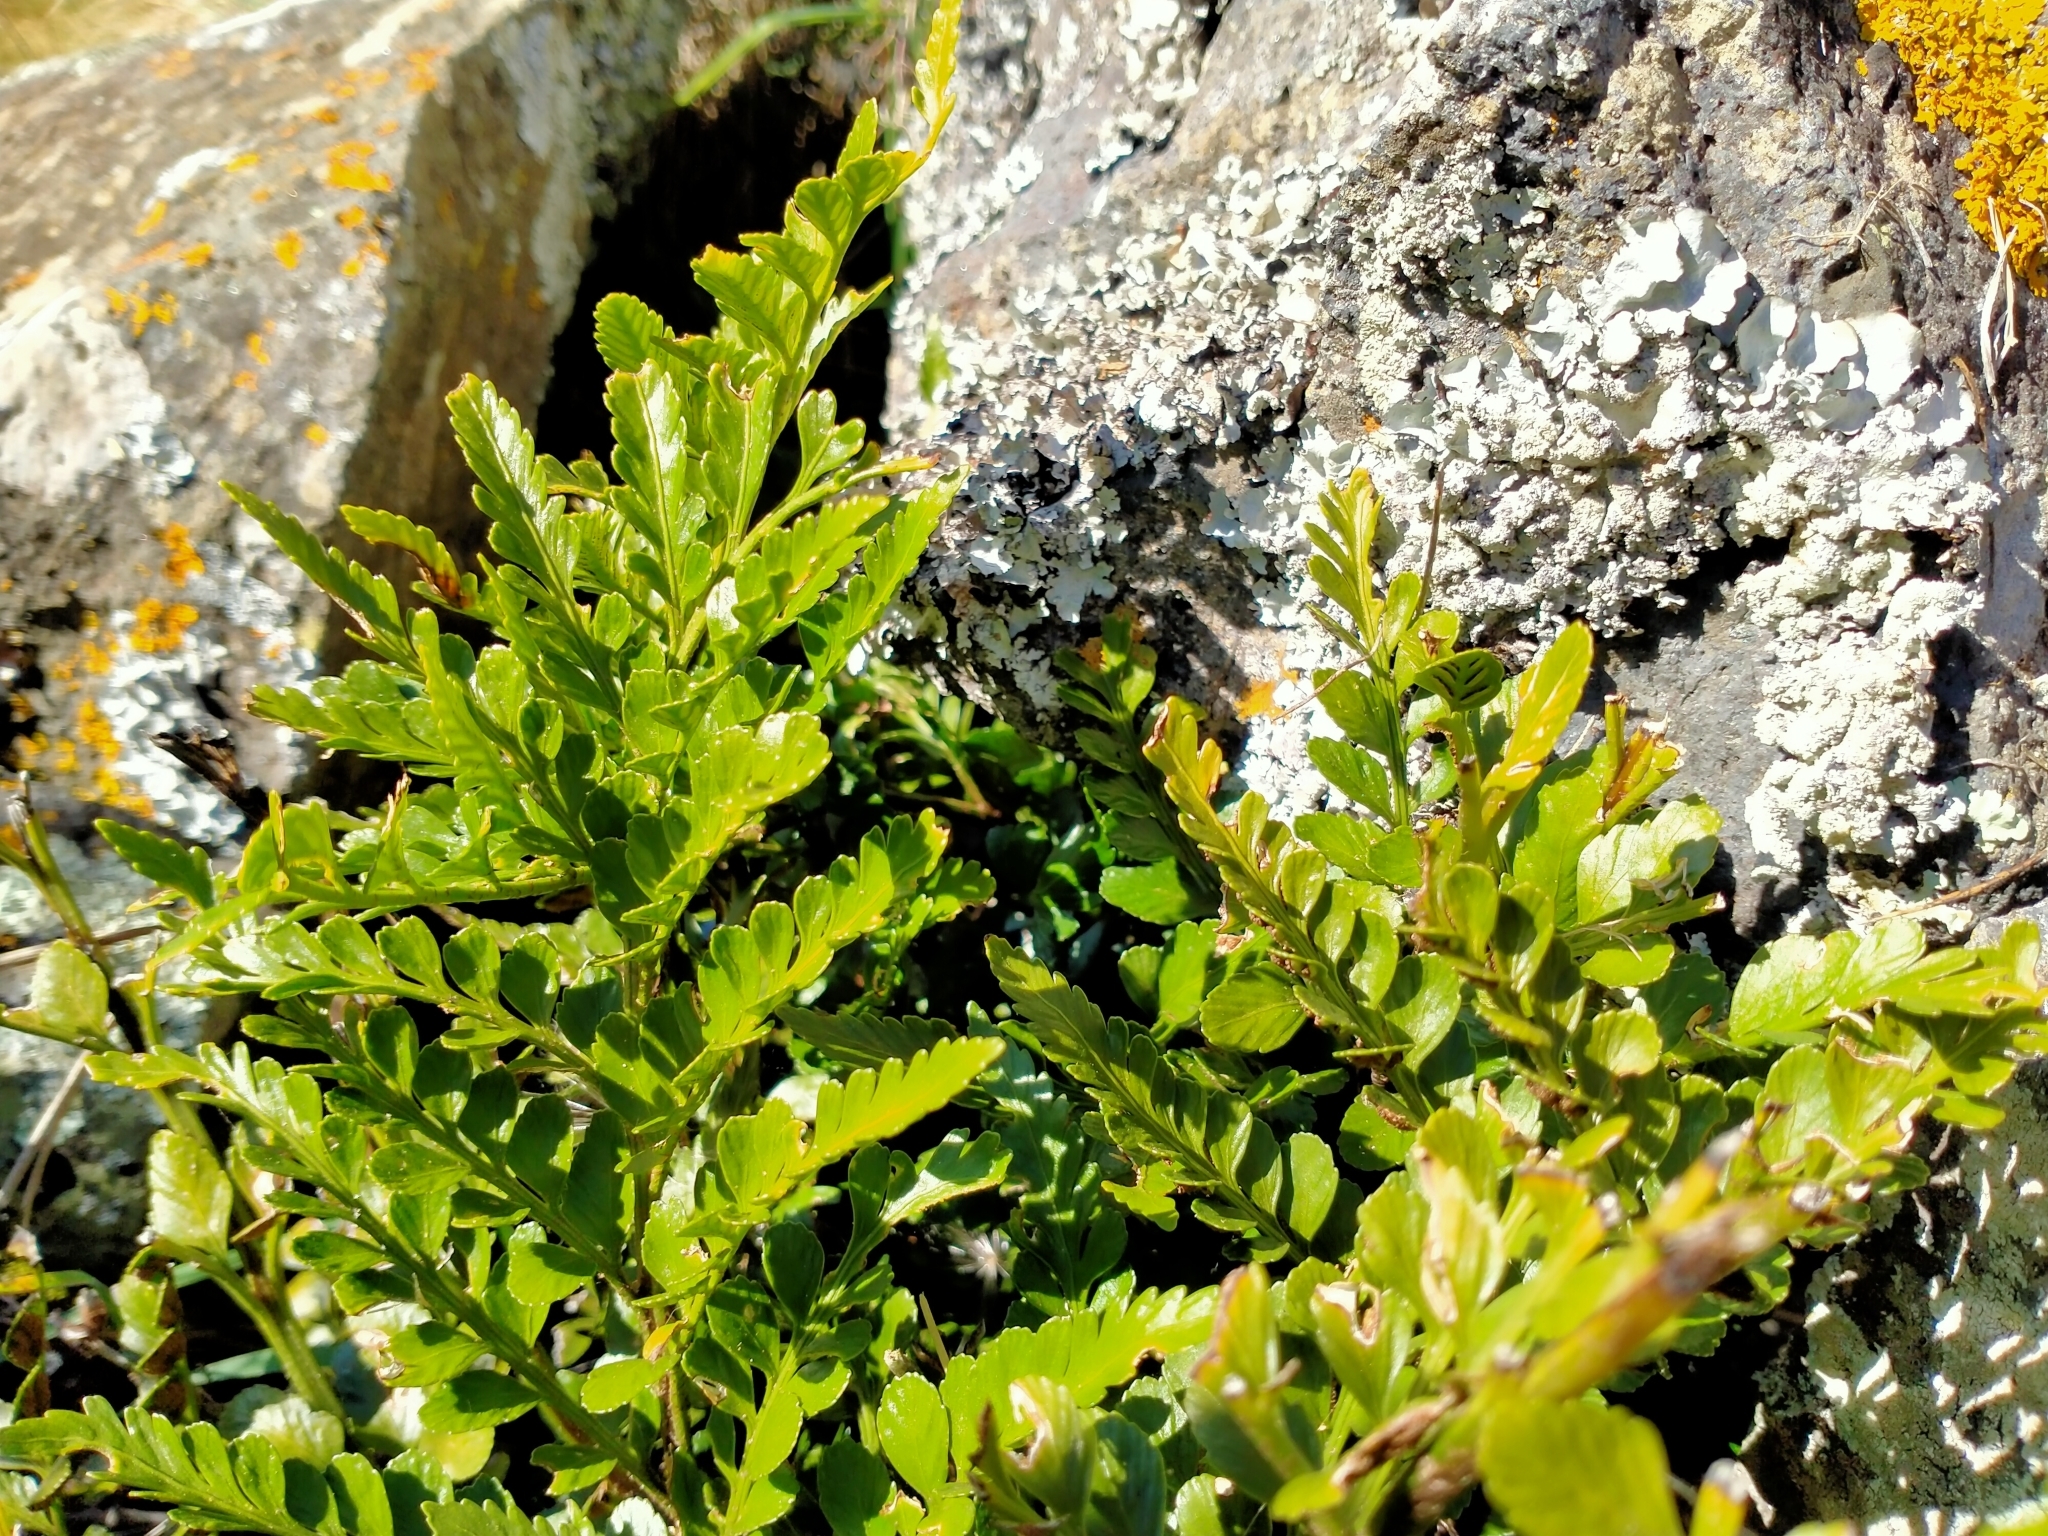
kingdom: Plantae
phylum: Tracheophyta
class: Polypodiopsida
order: Polypodiales
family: Aspleniaceae
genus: Asplenium
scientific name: Asplenium lyallii
